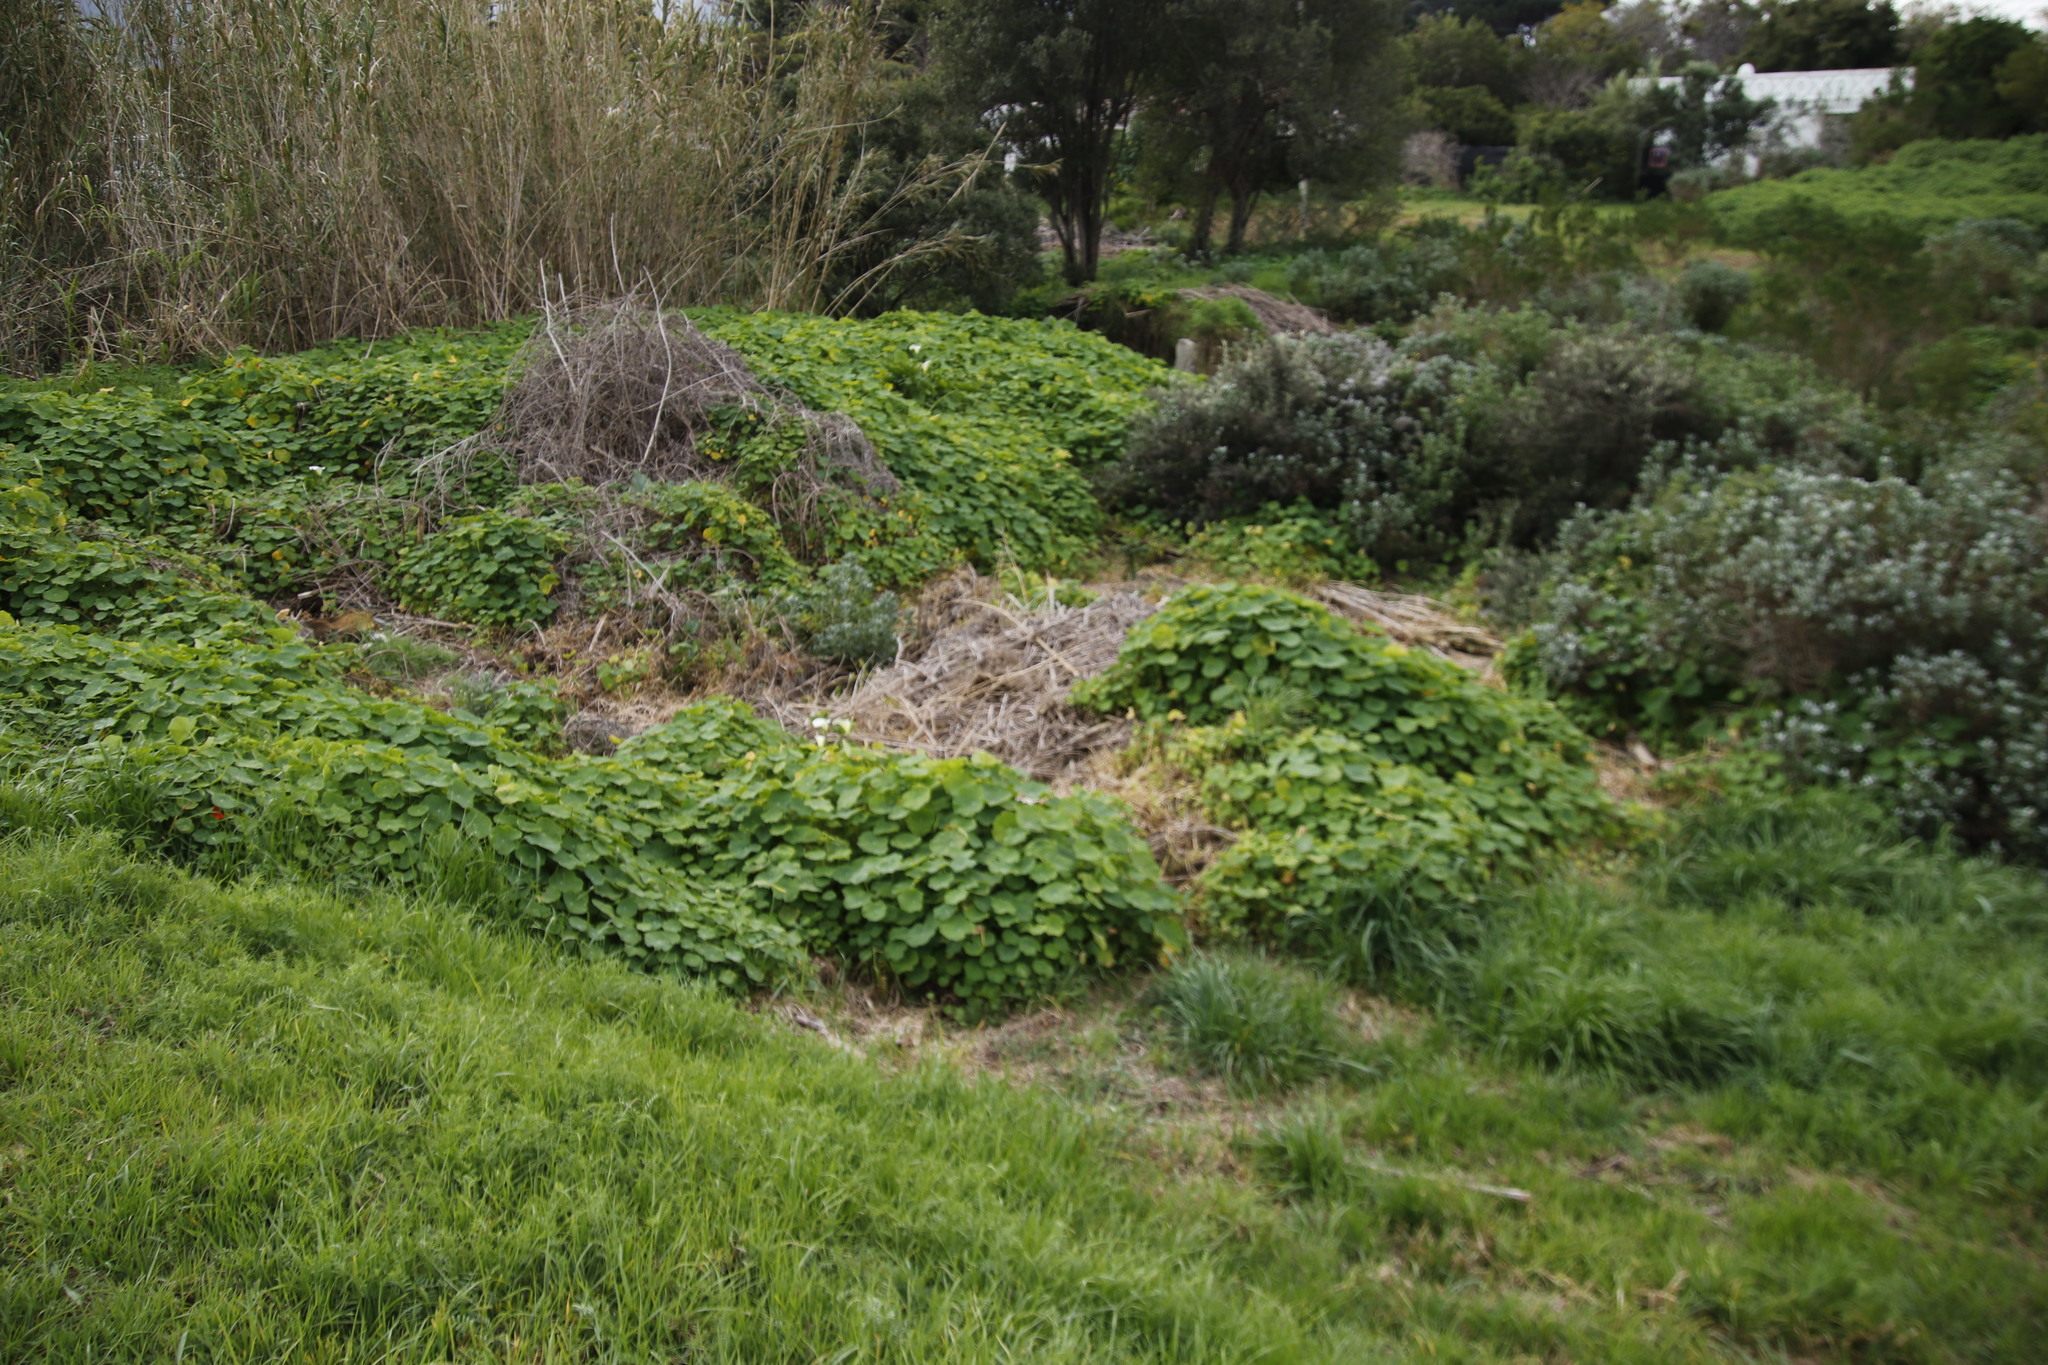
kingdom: Plantae
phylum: Tracheophyta
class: Magnoliopsida
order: Brassicales
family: Tropaeolaceae
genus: Tropaeolum
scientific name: Tropaeolum majus
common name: Nasturtium
